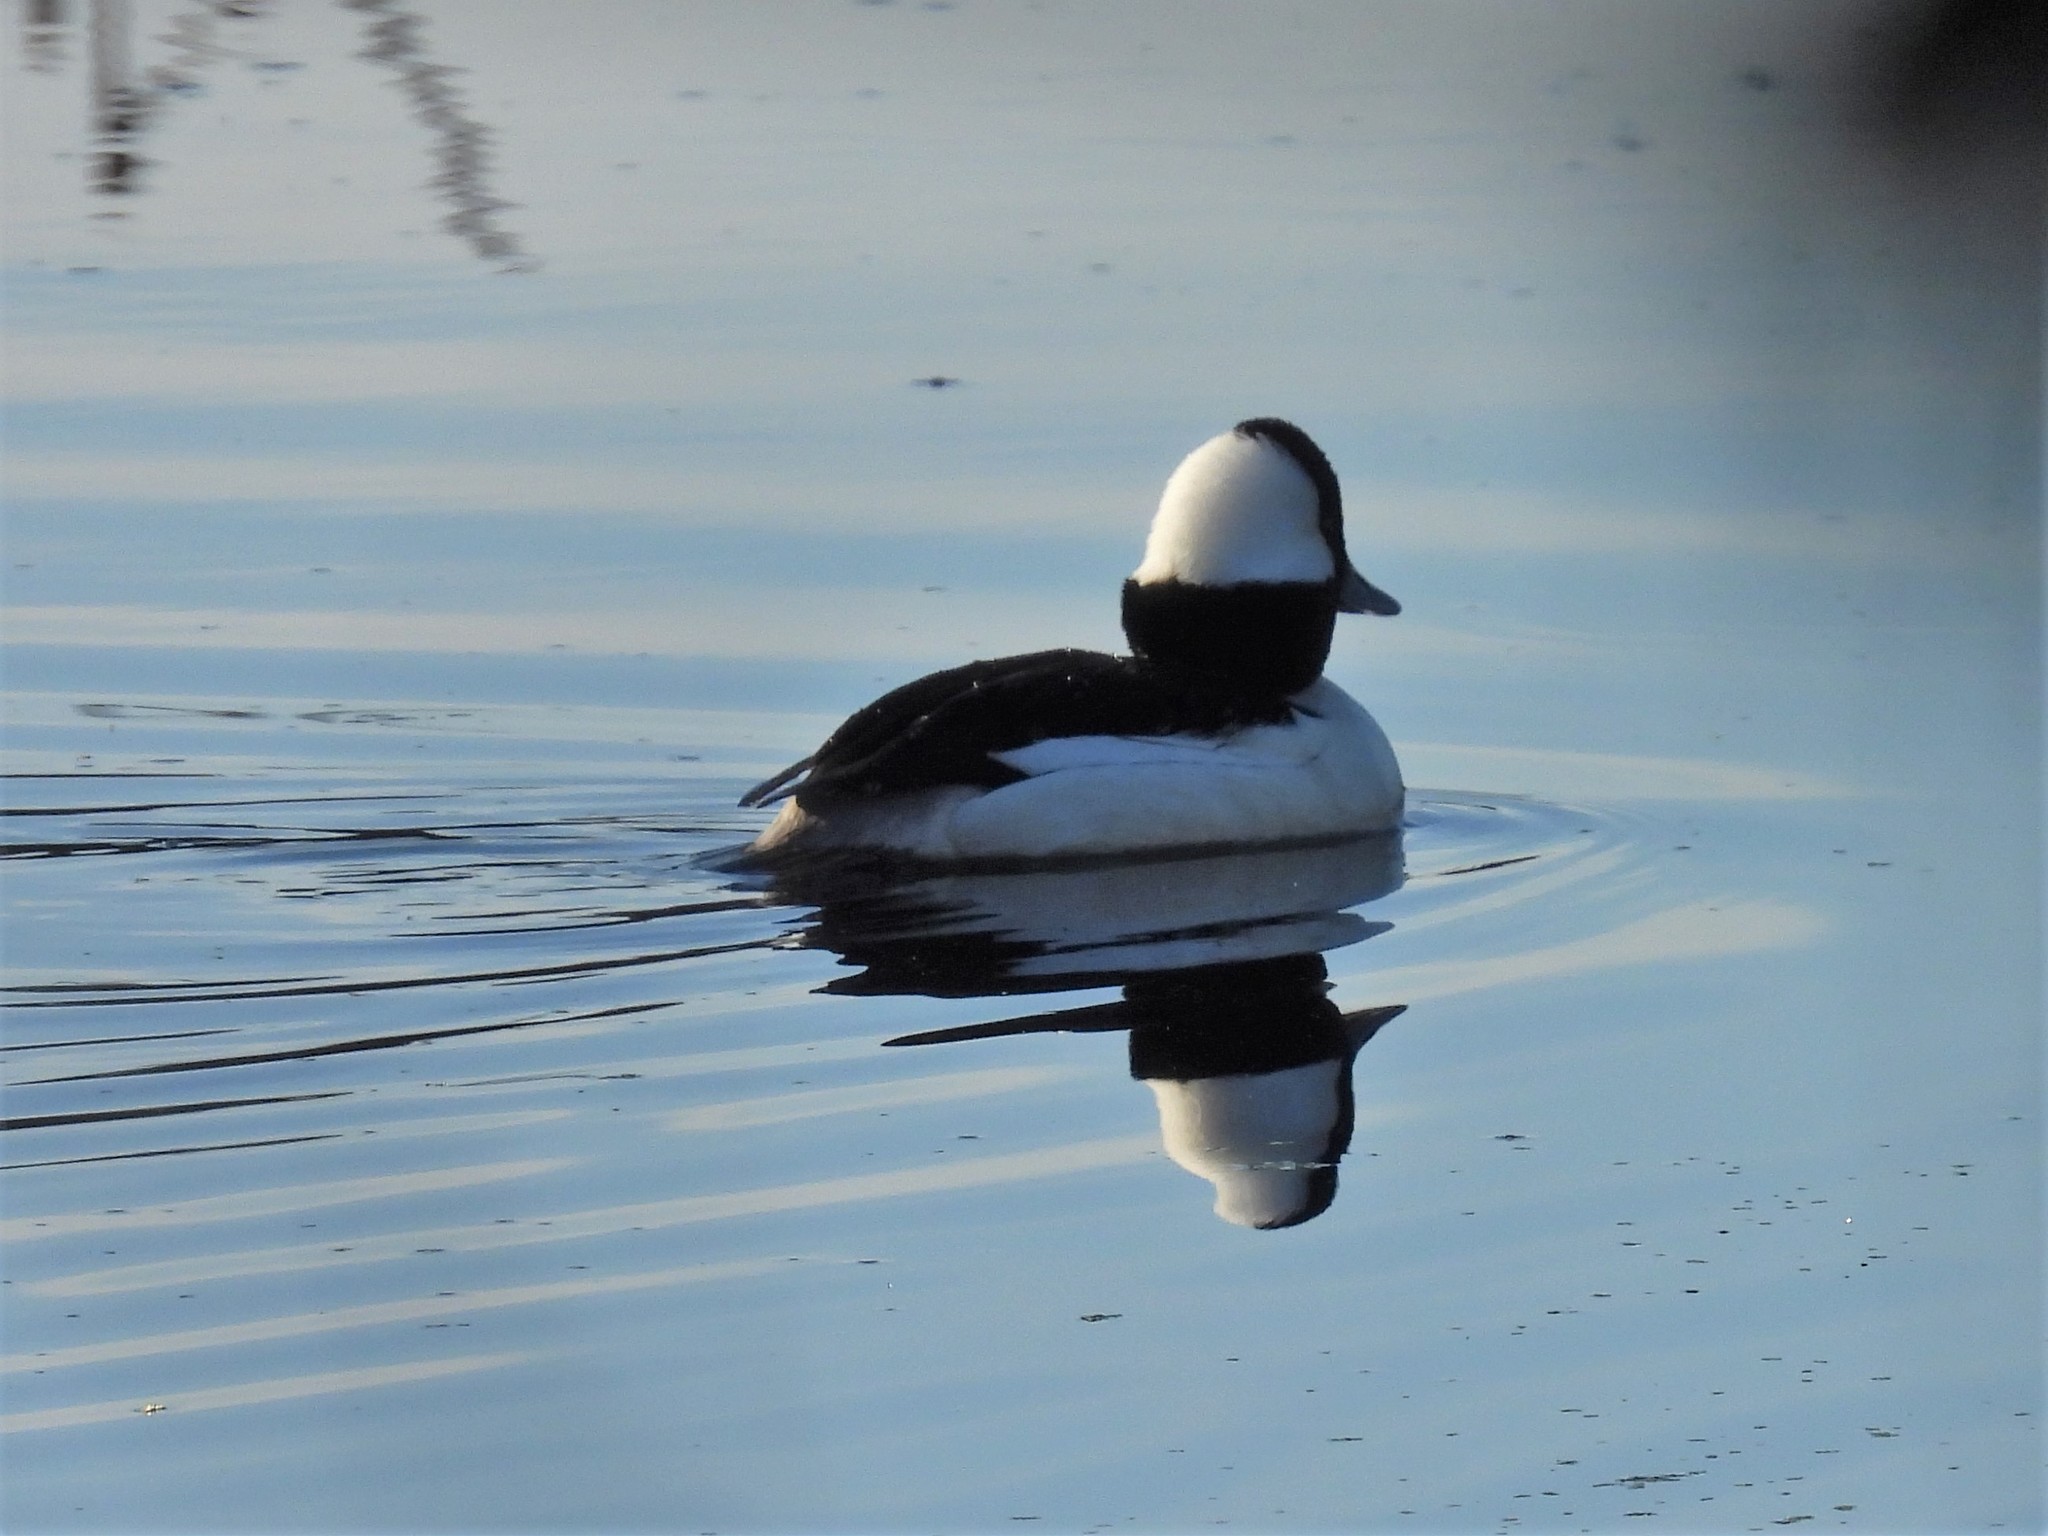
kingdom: Animalia
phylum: Chordata
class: Aves
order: Anseriformes
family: Anatidae
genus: Bucephala
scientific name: Bucephala albeola
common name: Bufflehead
